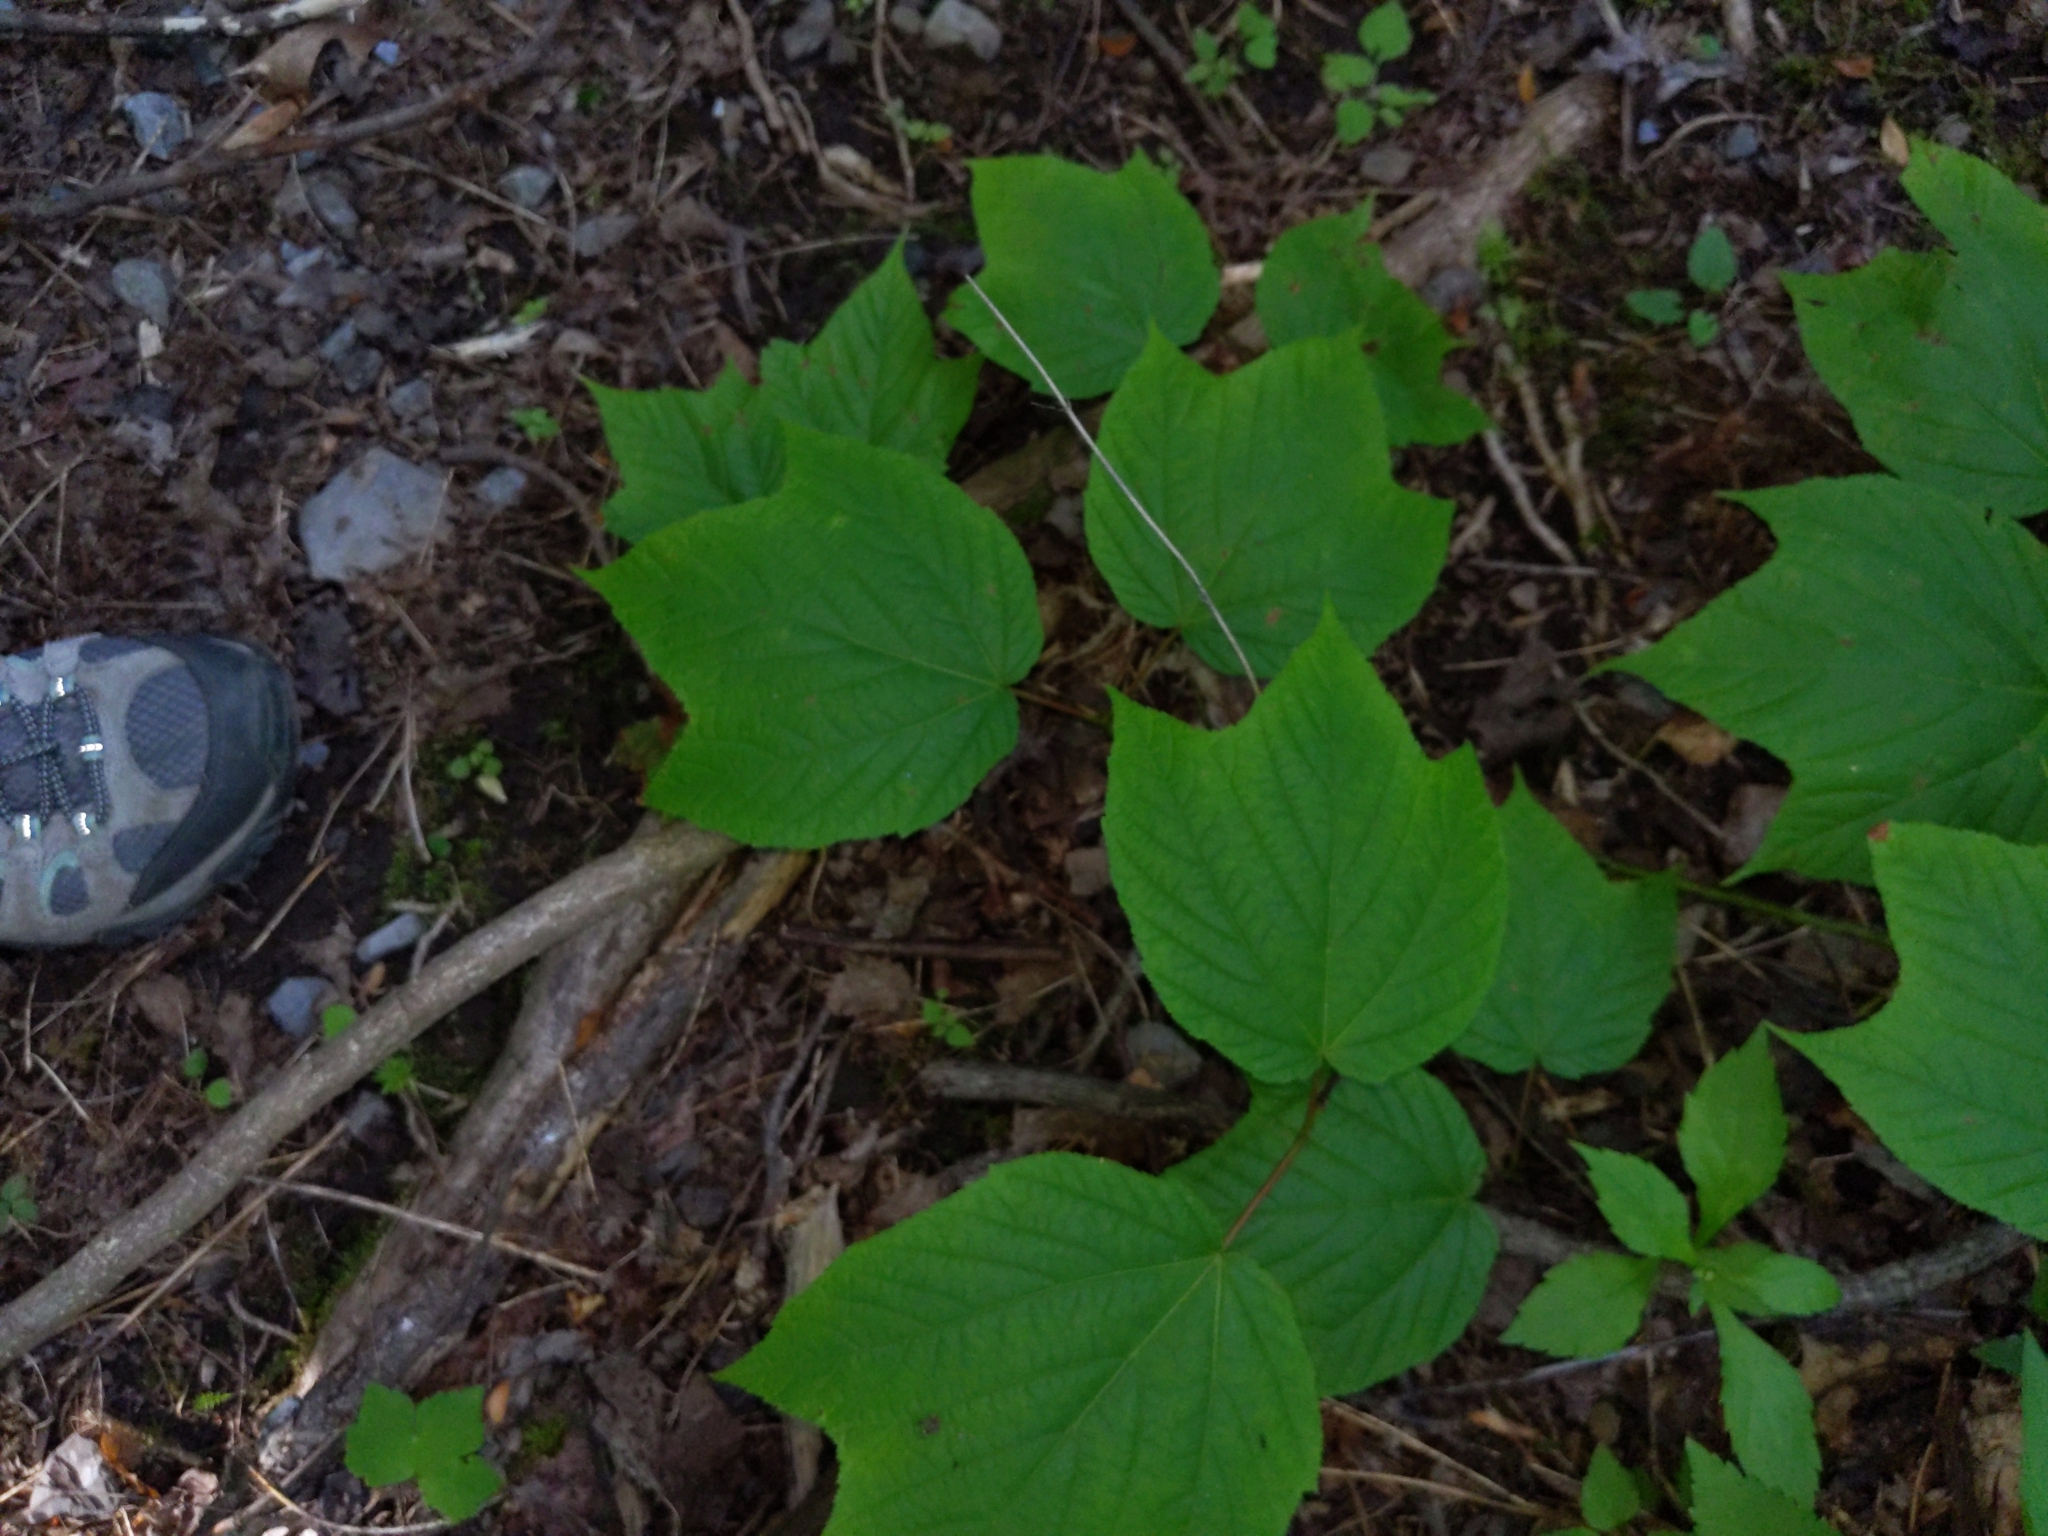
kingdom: Plantae
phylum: Tracheophyta
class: Magnoliopsida
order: Sapindales
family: Sapindaceae
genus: Acer
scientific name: Acer pensylvanicum
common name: Moosewood
